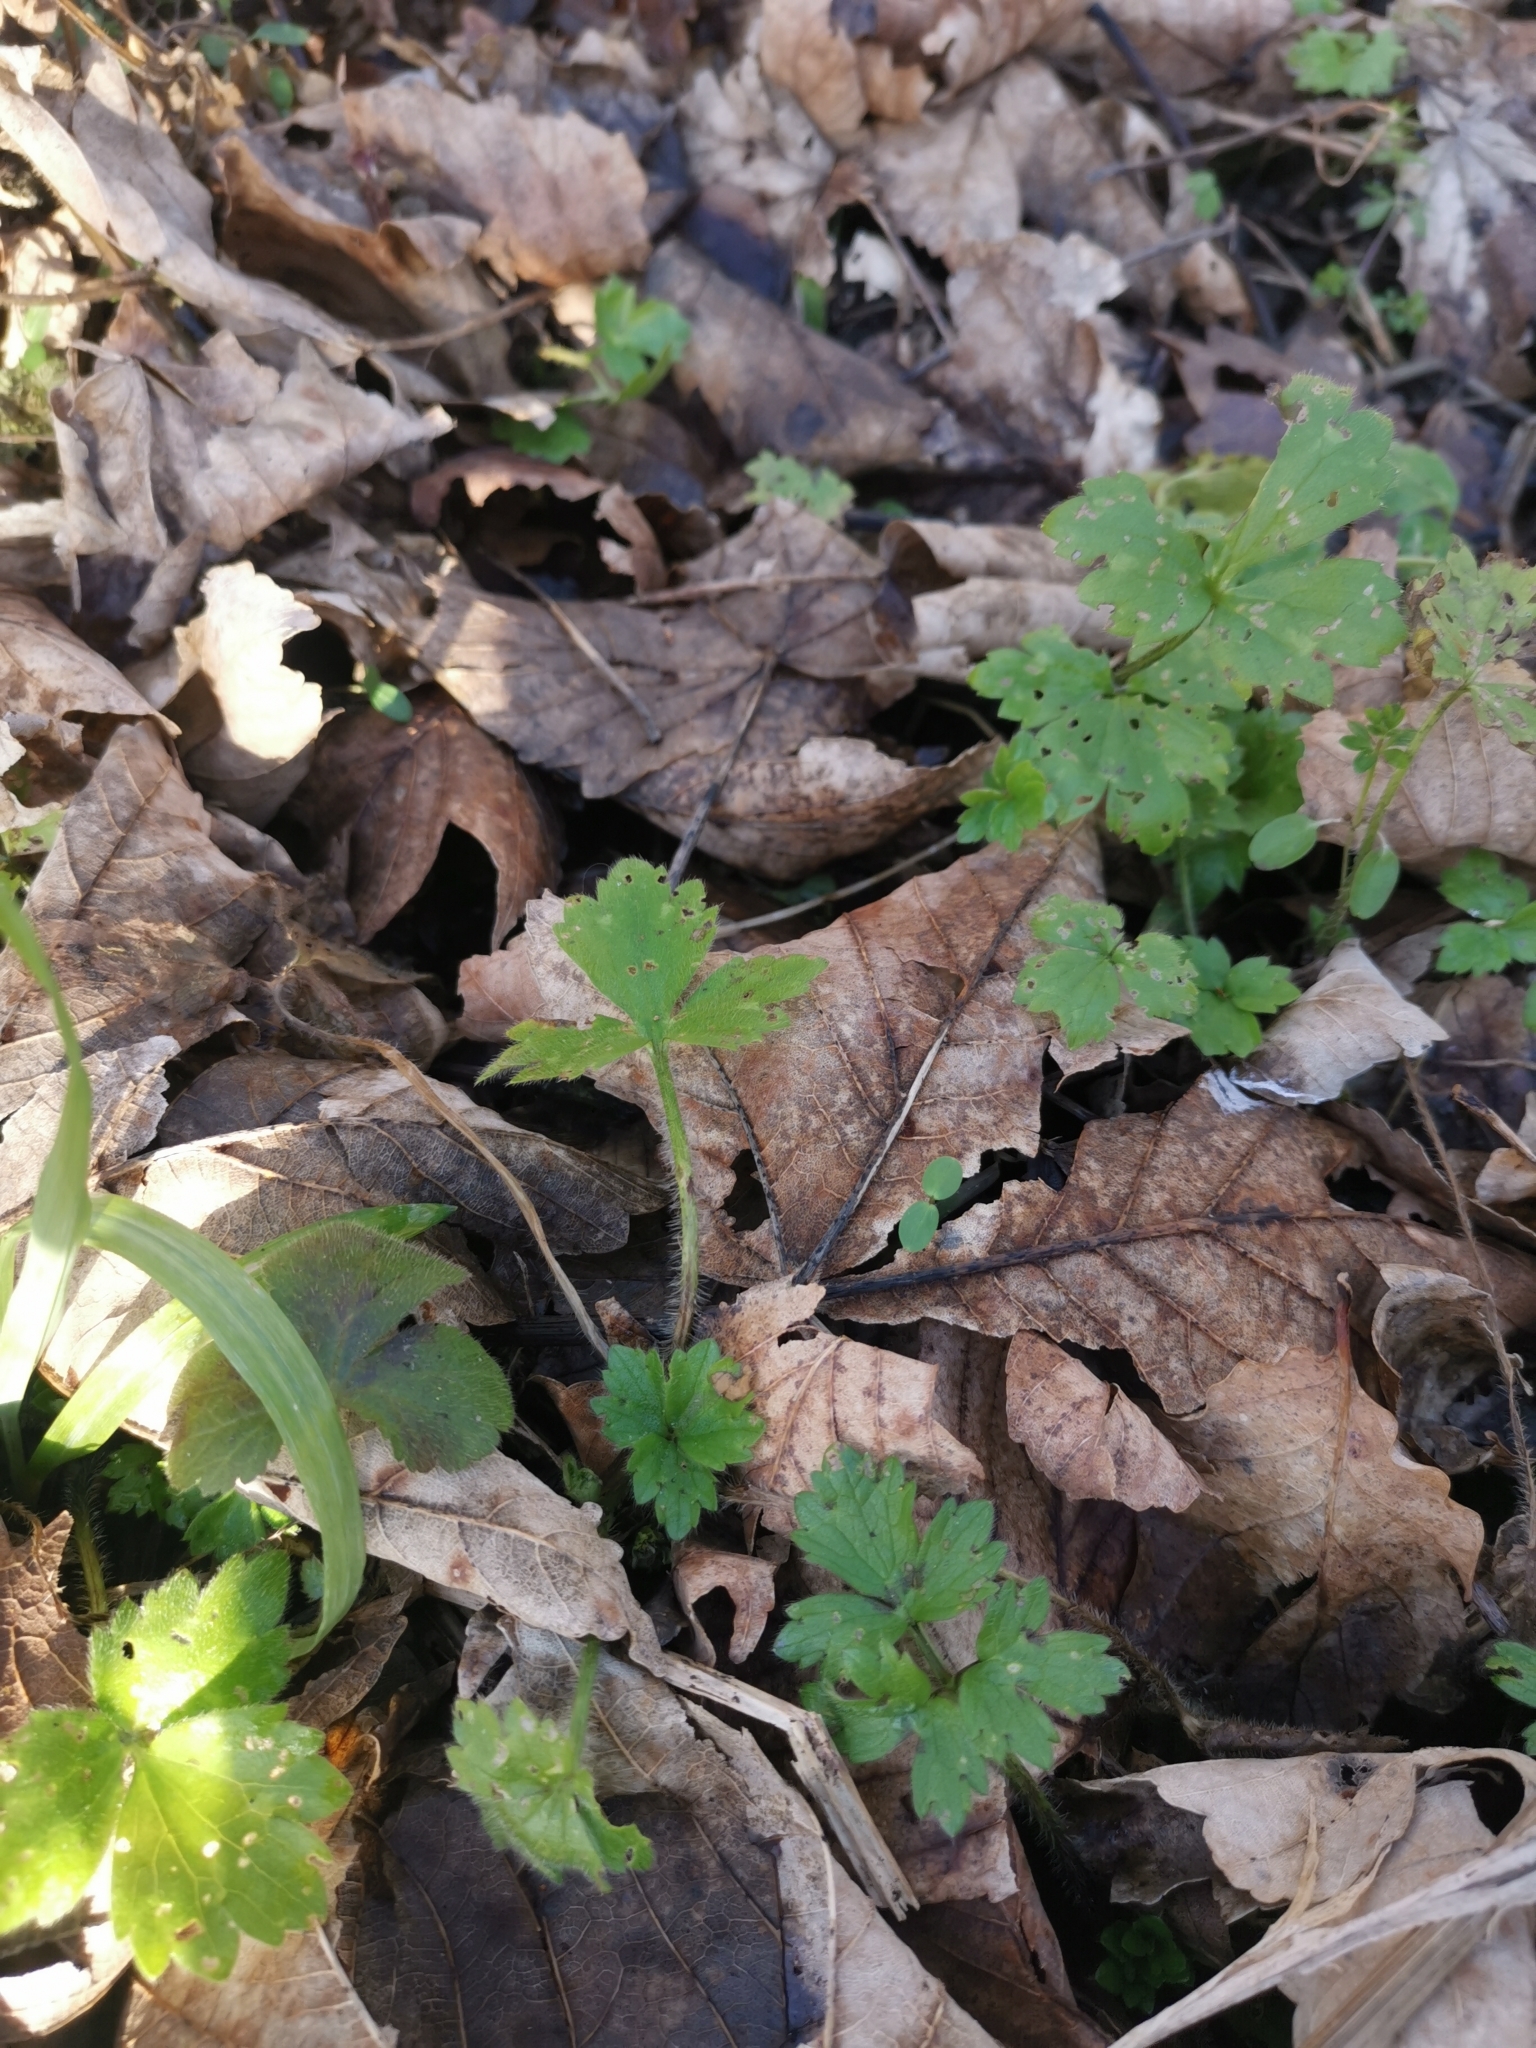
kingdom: Plantae
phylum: Tracheophyta
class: Magnoliopsida
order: Ranunculales
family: Ranunculaceae
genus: Ranunculus
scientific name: Ranunculus repens
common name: Creeping buttercup
